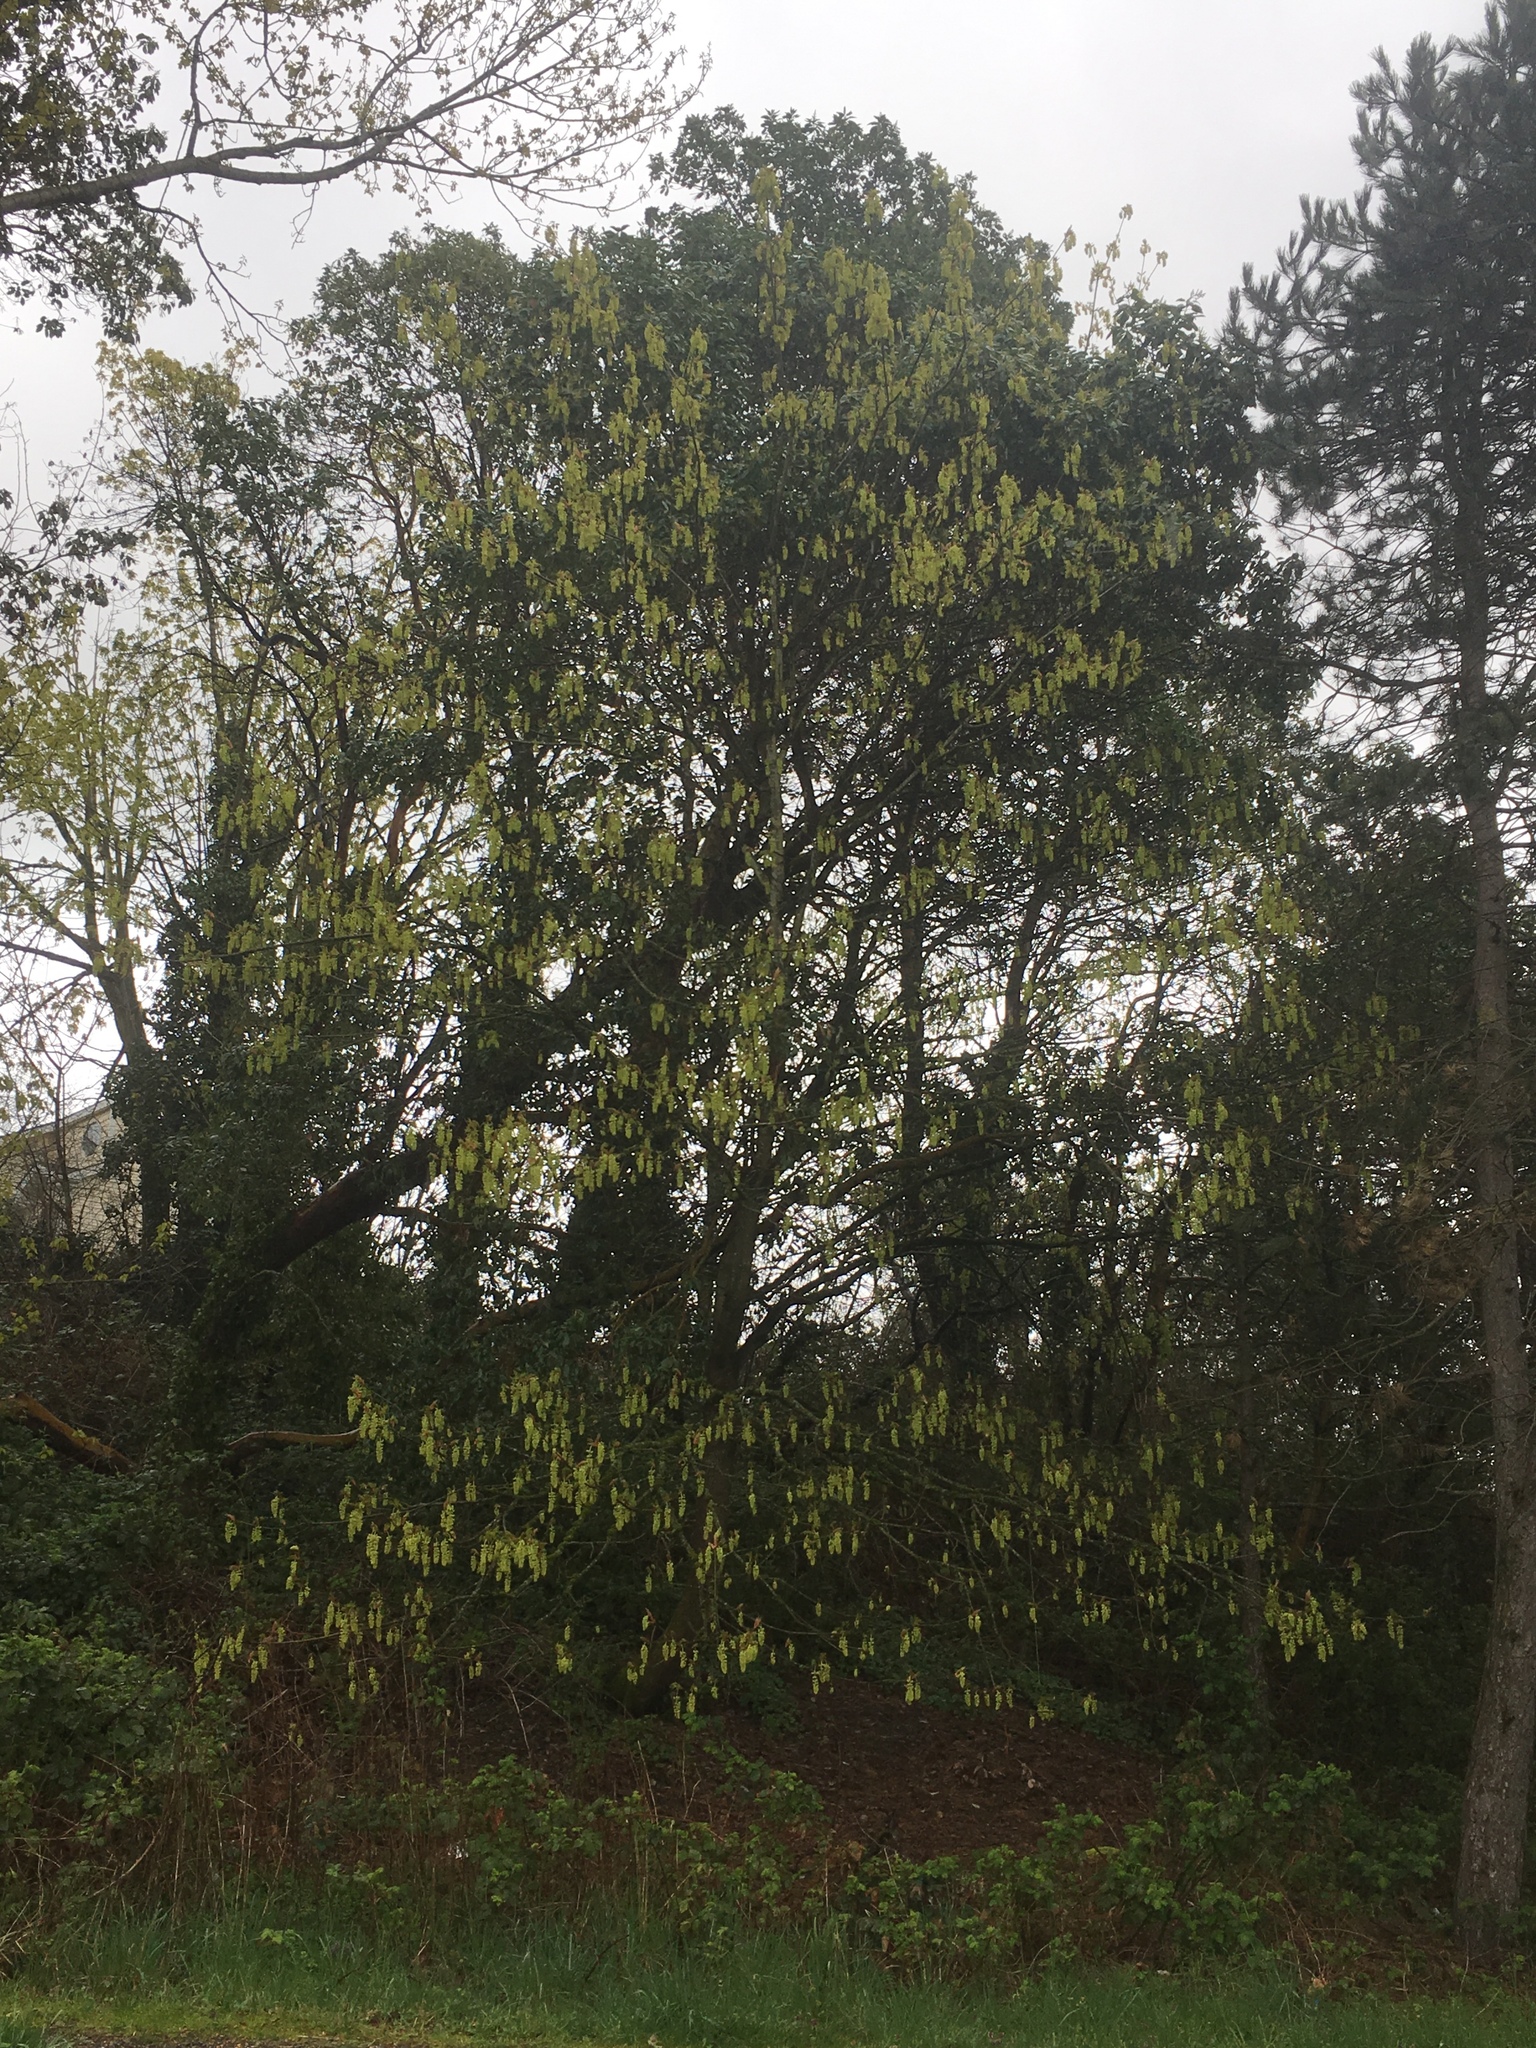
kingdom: Plantae
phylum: Tracheophyta
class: Magnoliopsida
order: Sapindales
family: Sapindaceae
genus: Acer
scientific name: Acer macrophyllum
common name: Oregon maple
